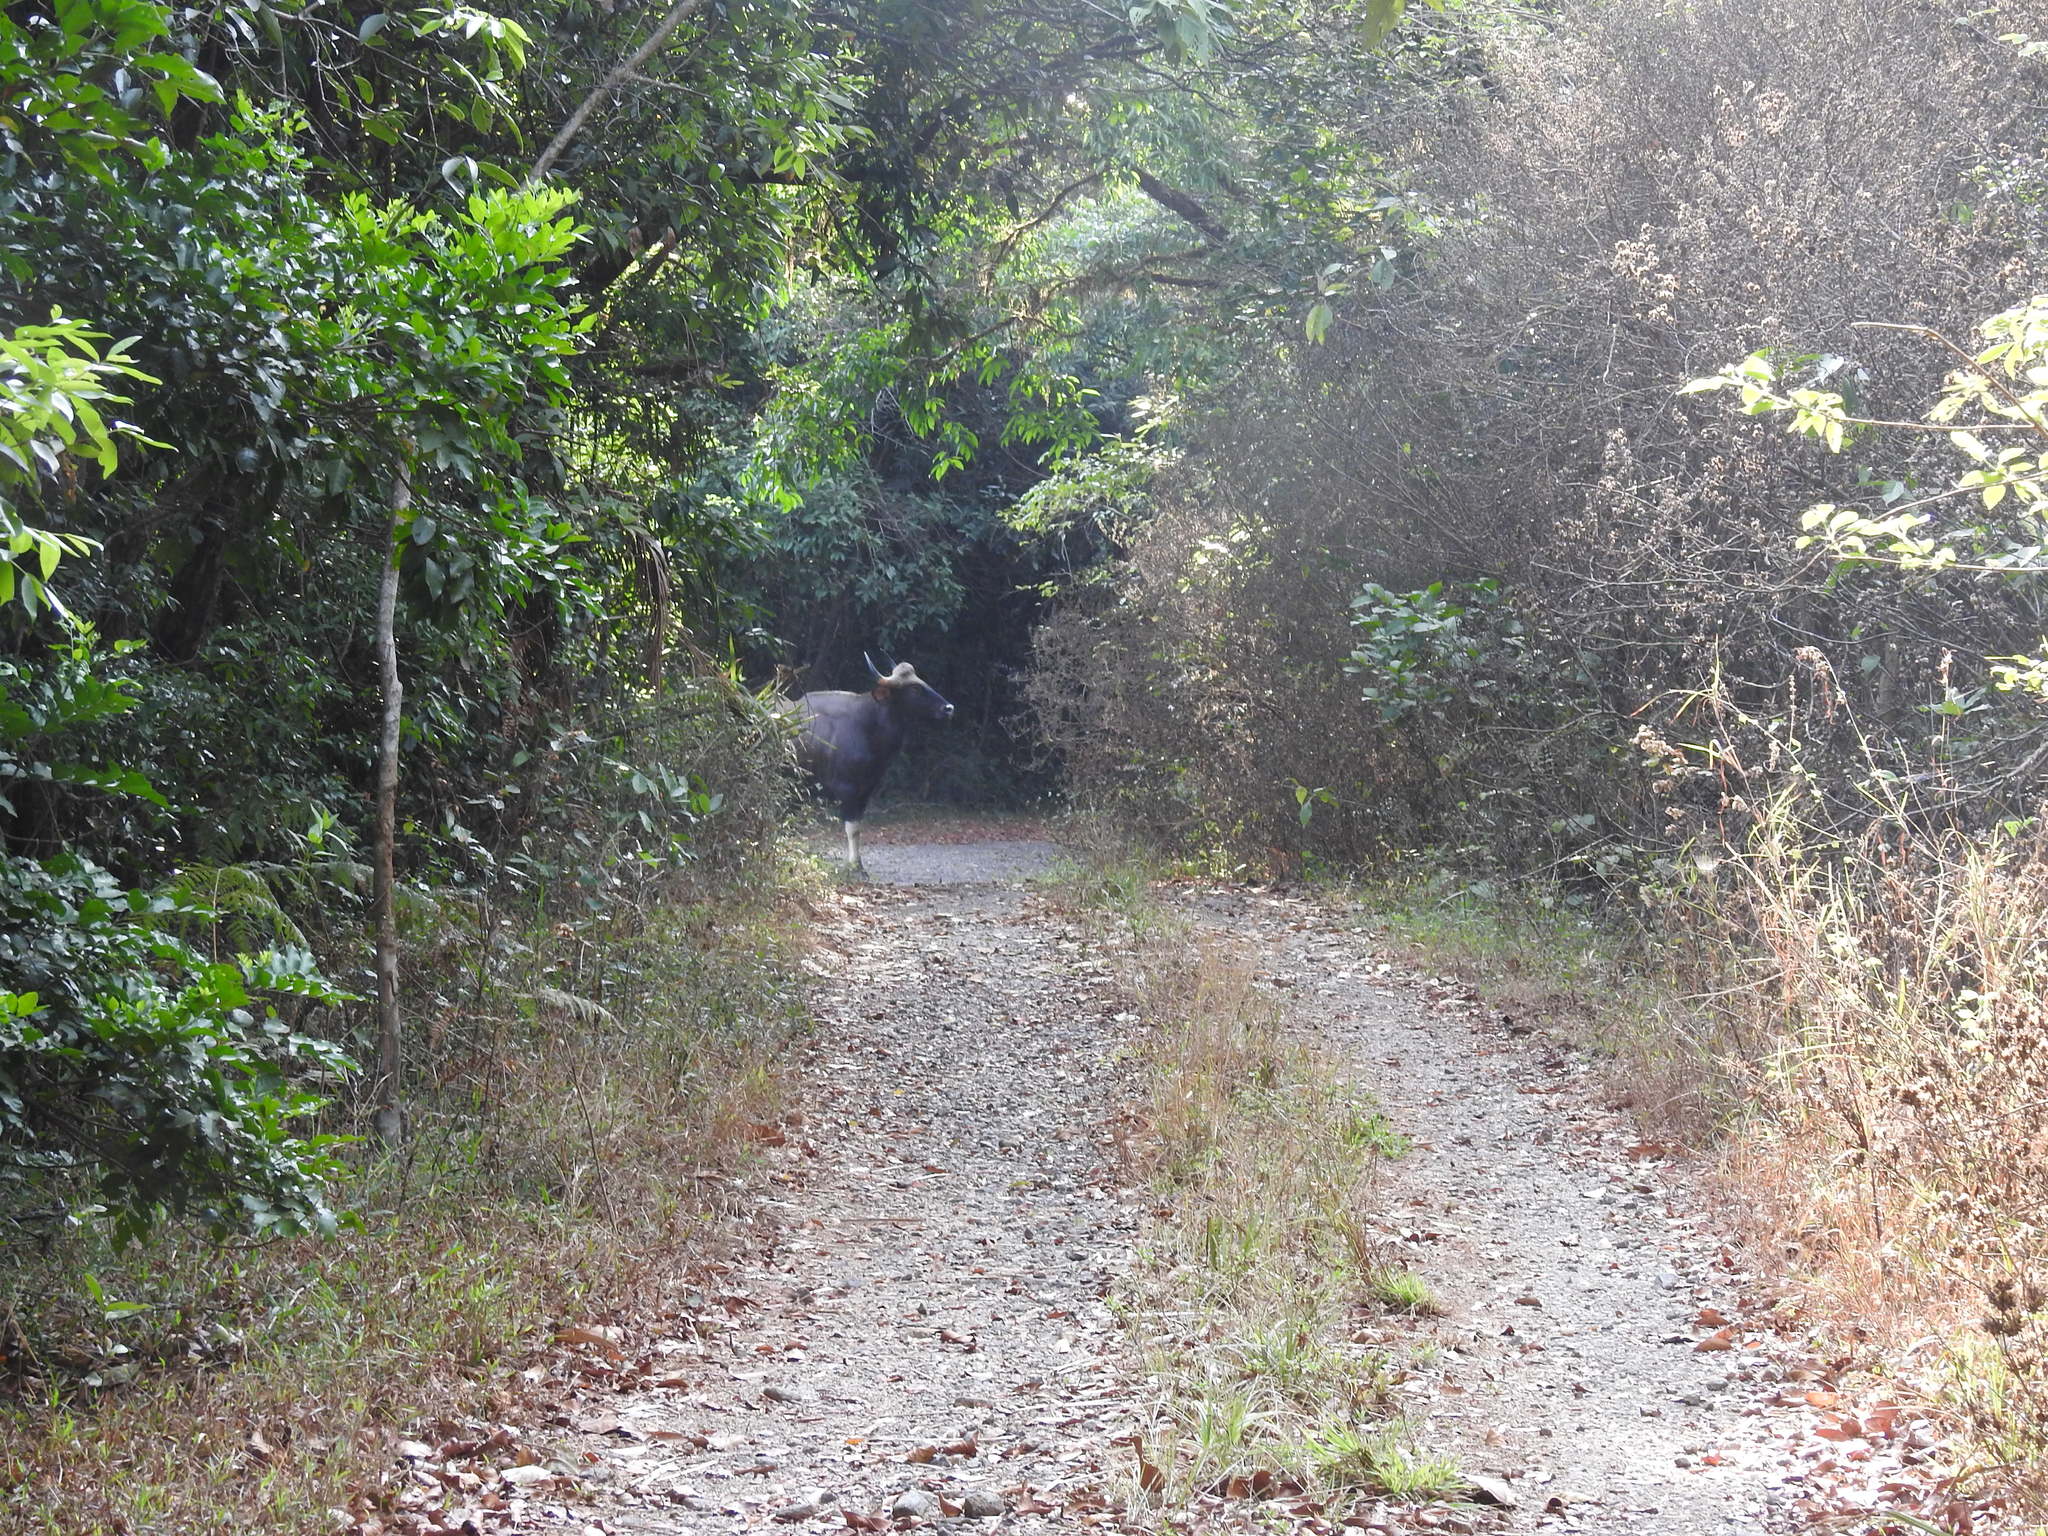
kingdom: Animalia
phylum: Chordata
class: Mammalia
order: Artiodactyla
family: Bovidae
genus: Bos
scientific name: Bos frontalis
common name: Gaur
